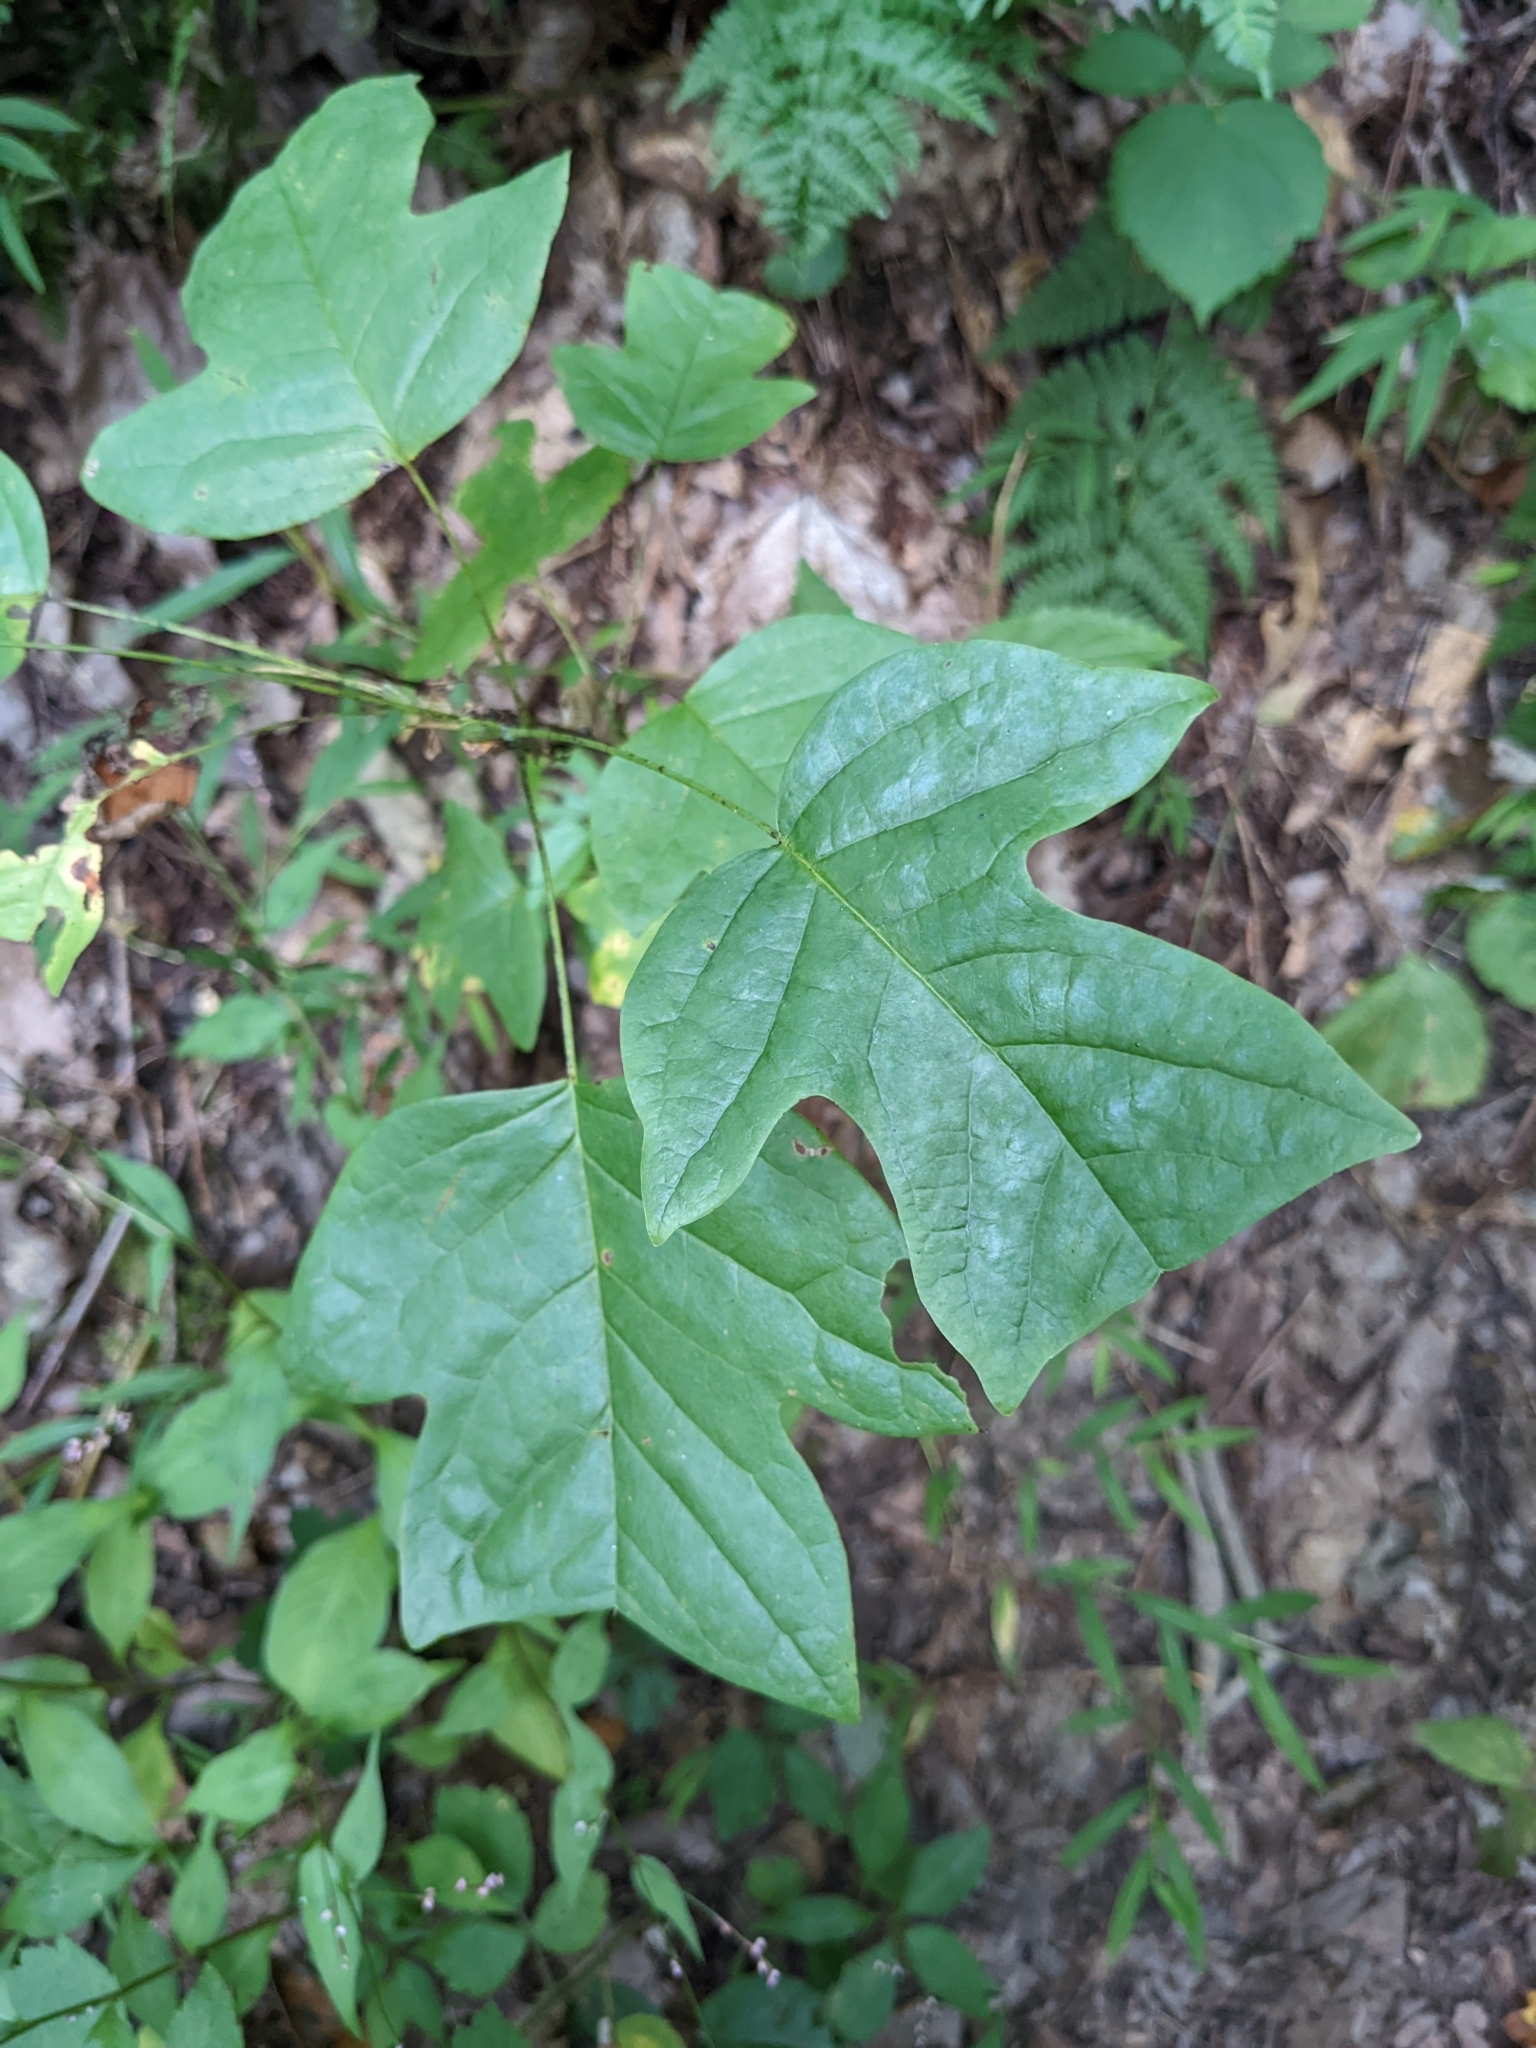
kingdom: Plantae
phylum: Tracheophyta
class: Magnoliopsida
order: Magnoliales
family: Magnoliaceae
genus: Liriodendron
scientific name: Liriodendron tulipifera
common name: Tulip tree
